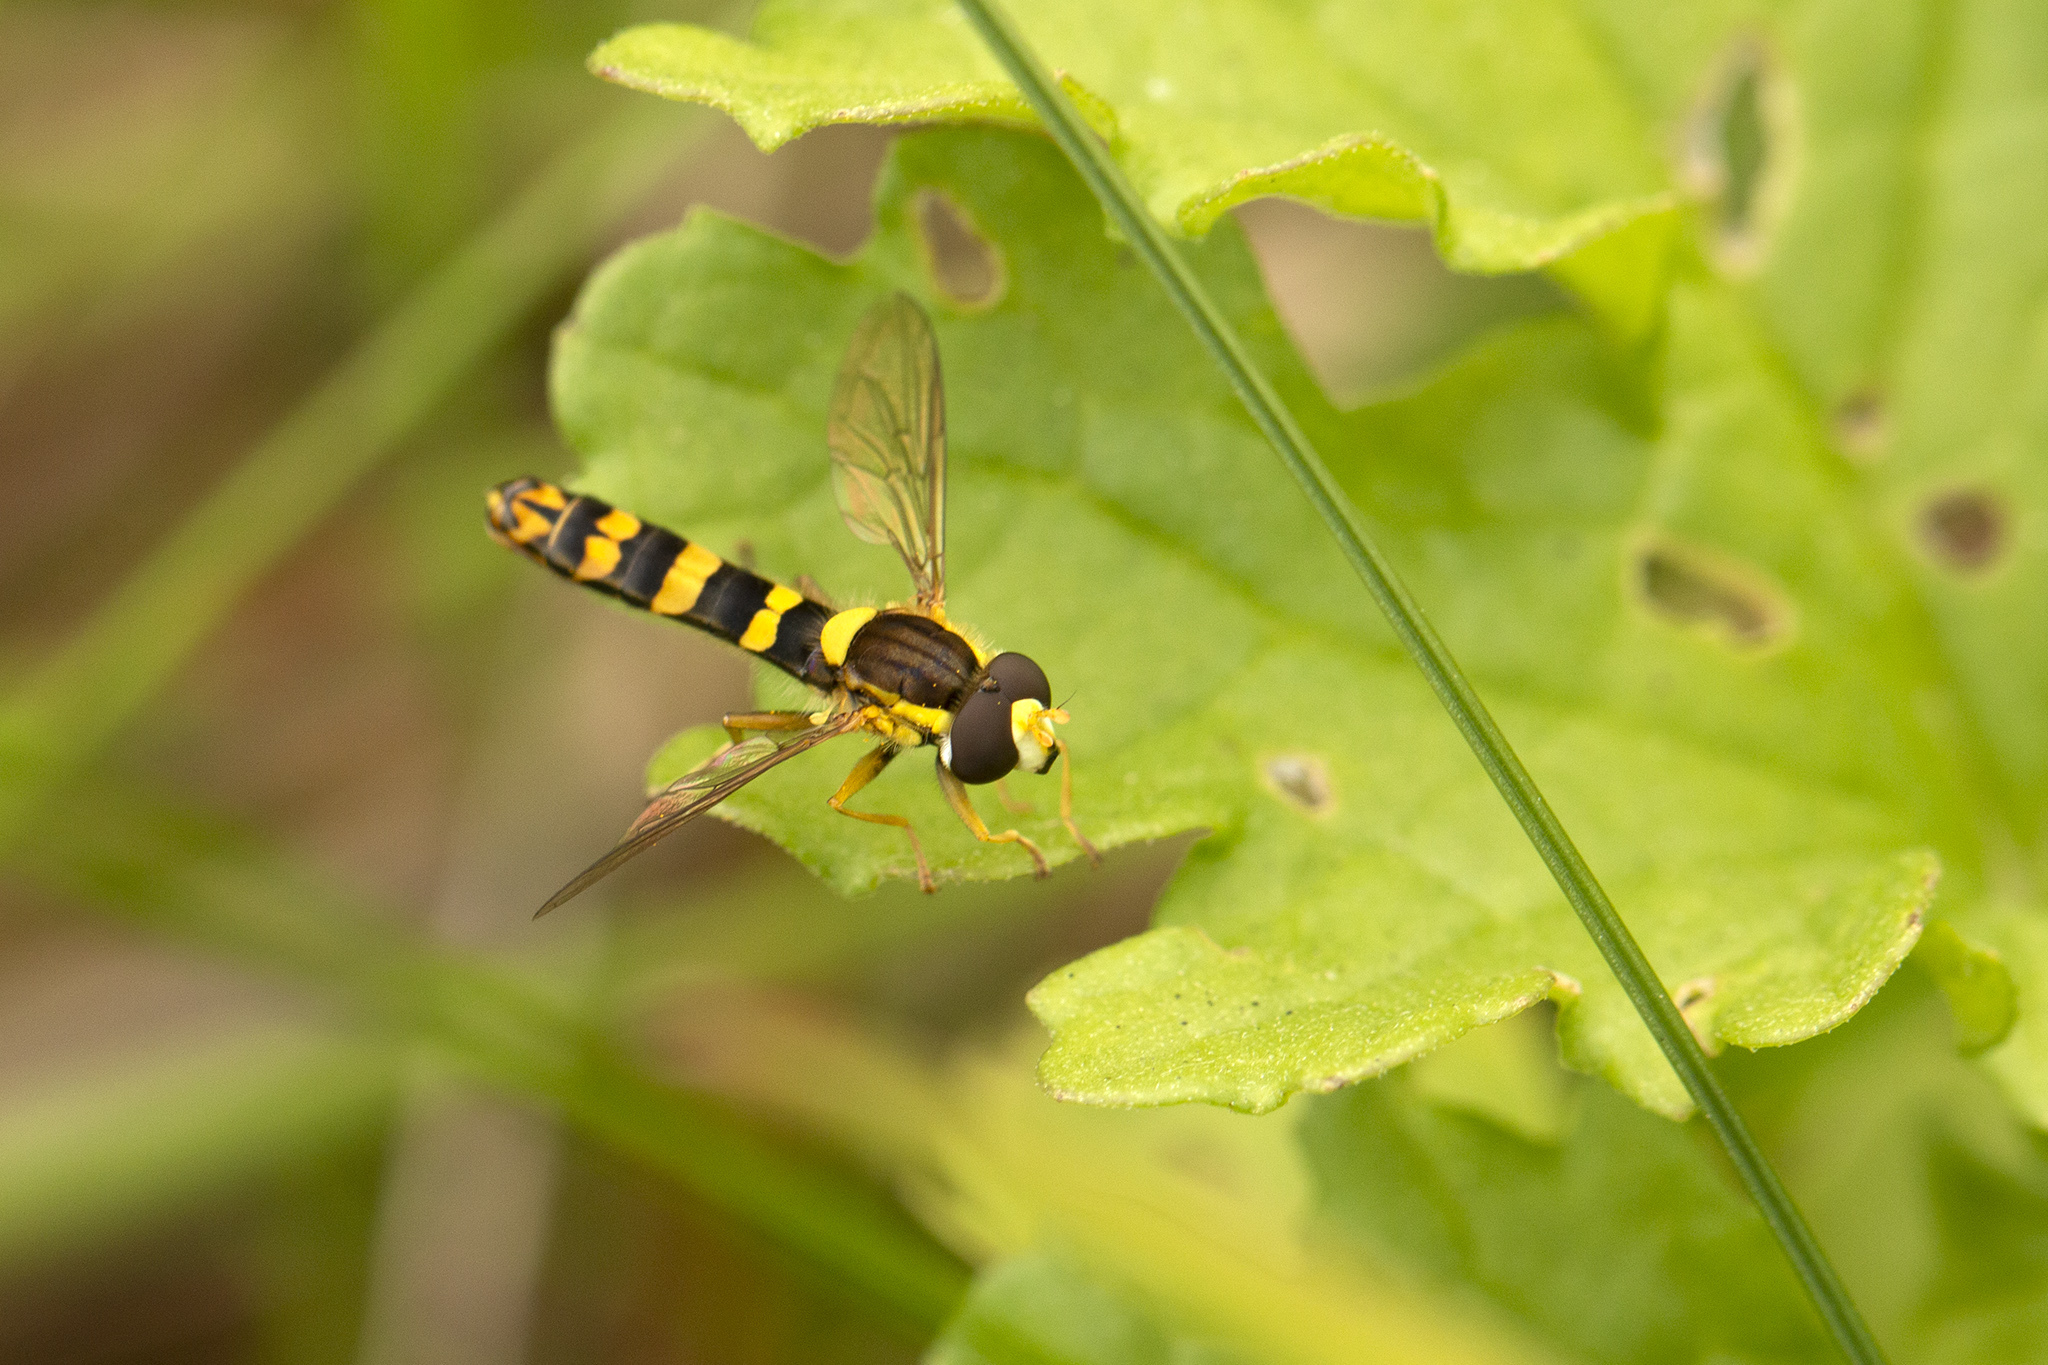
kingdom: Animalia
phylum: Arthropoda
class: Insecta
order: Diptera
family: Syrphidae
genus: Sphaerophoria
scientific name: Sphaerophoria scripta
